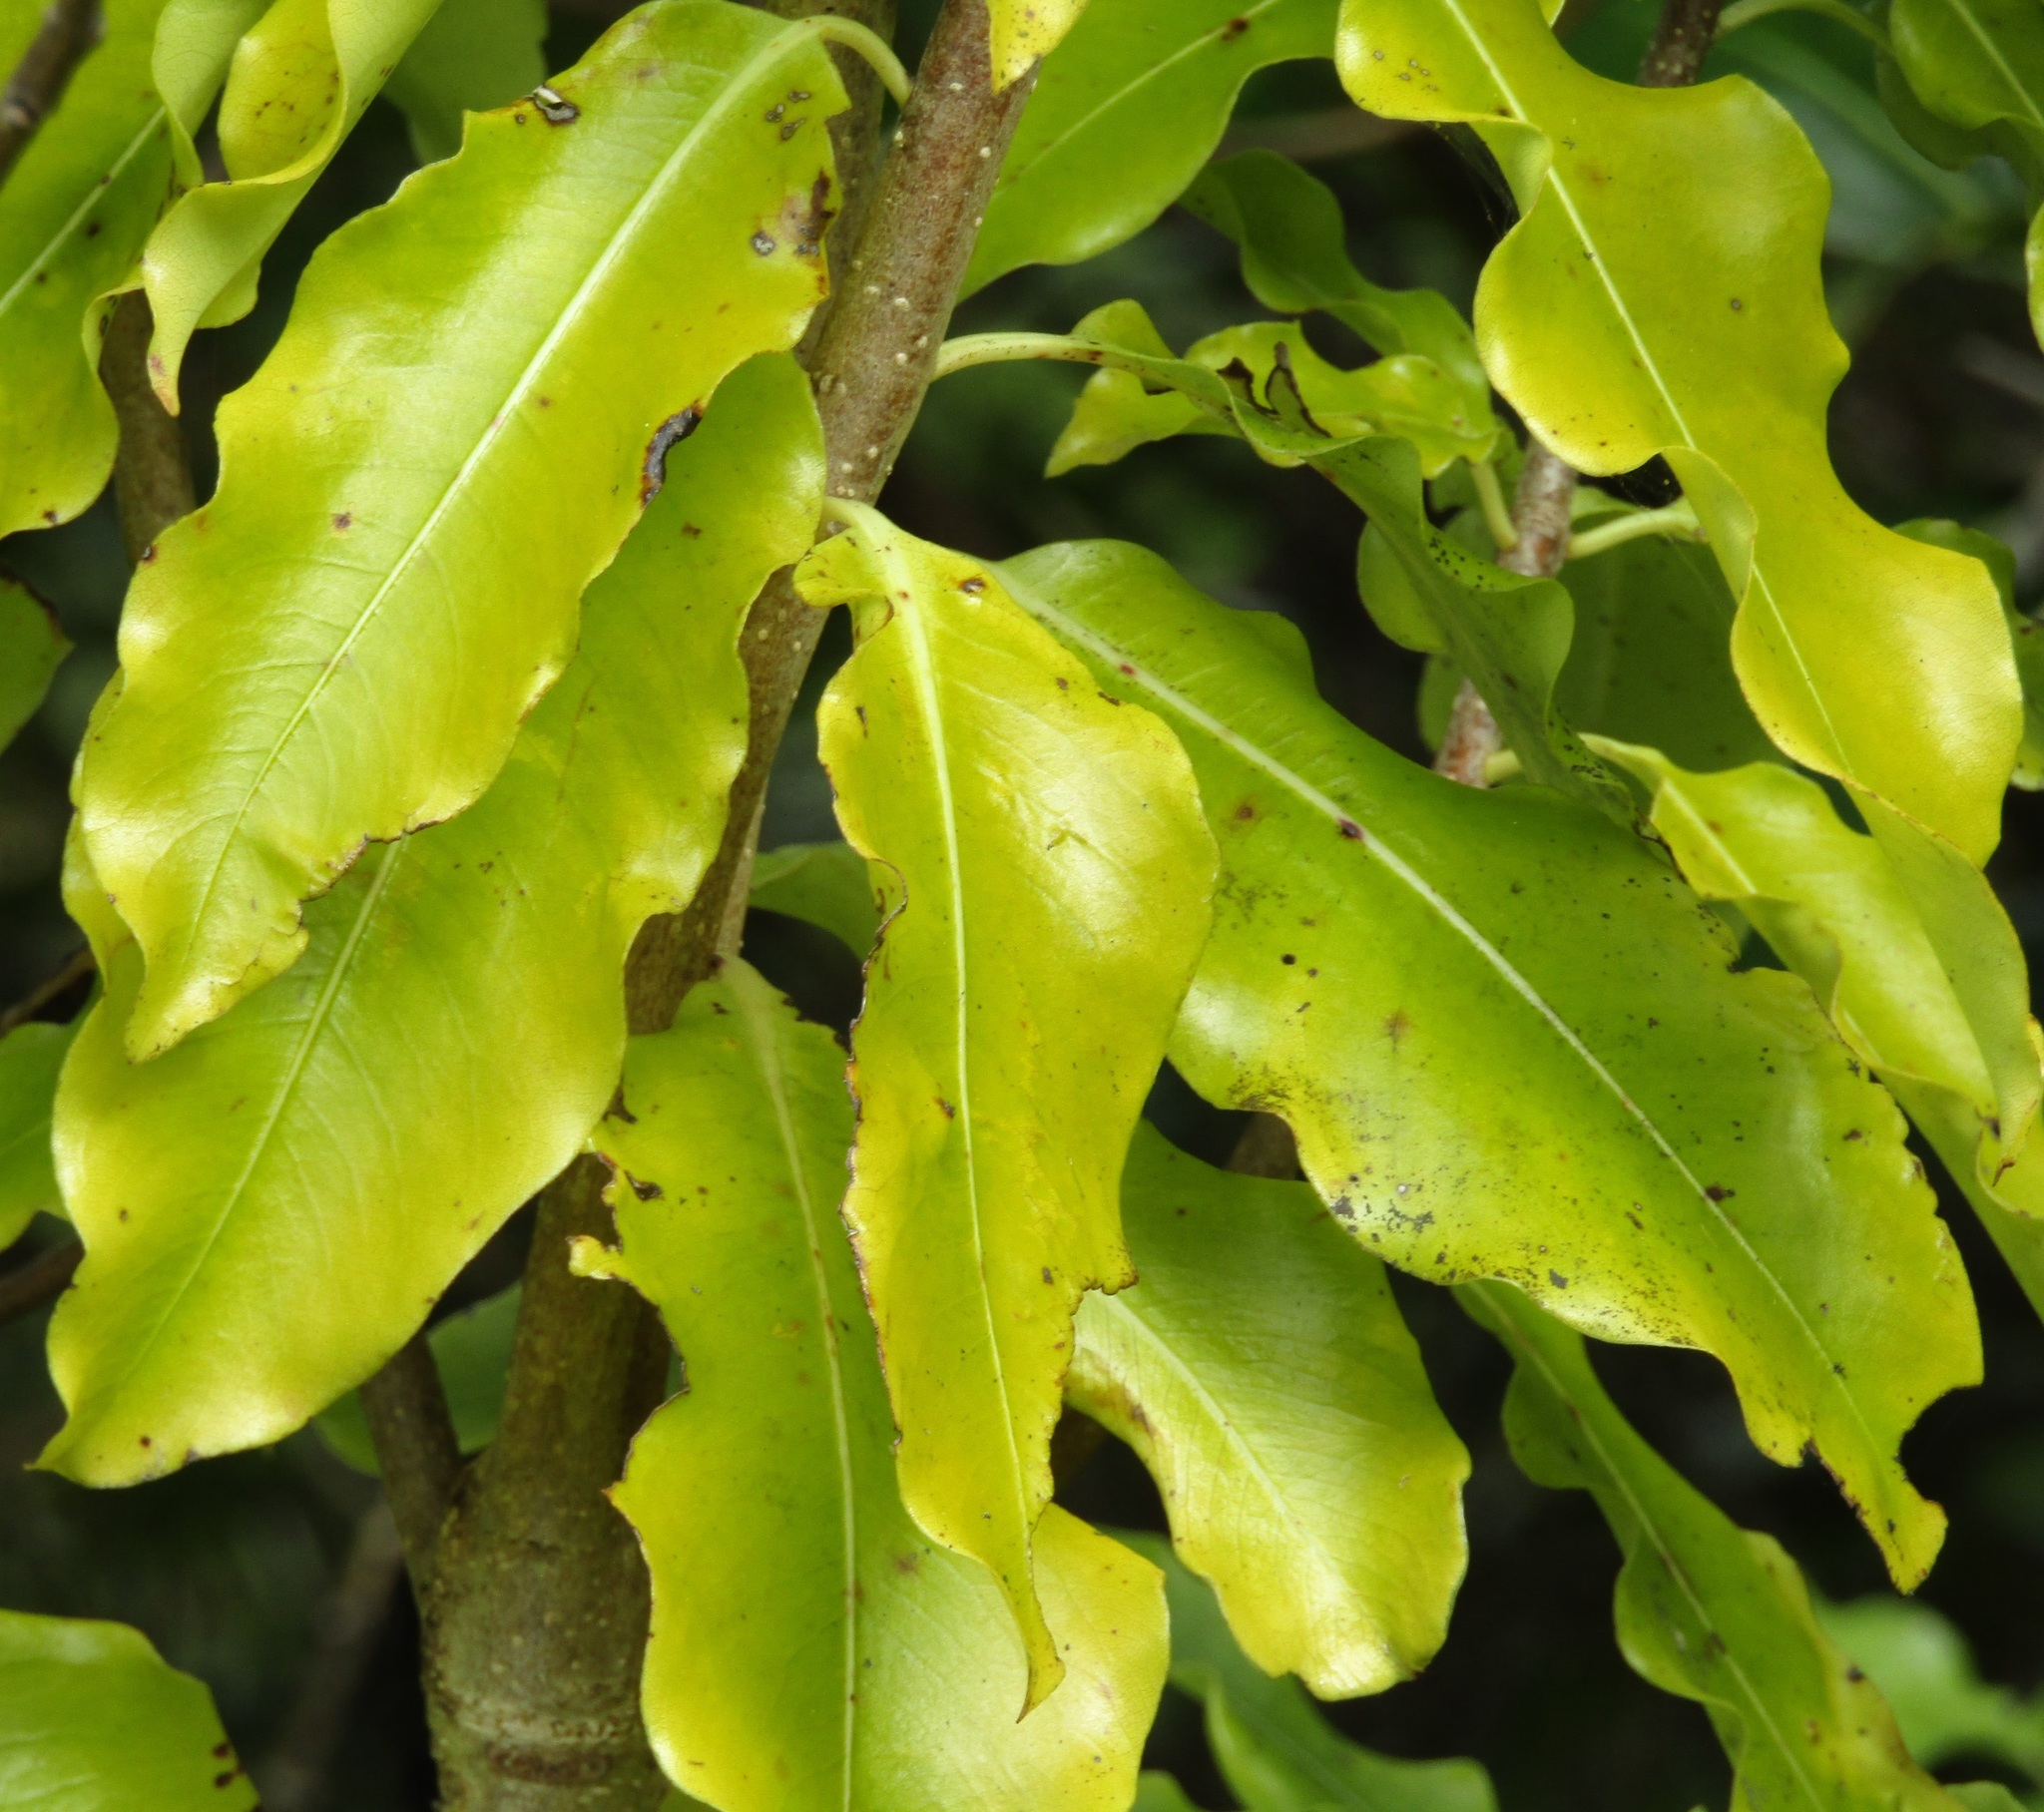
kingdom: Plantae
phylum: Tracheophyta
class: Magnoliopsida
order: Apiales
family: Pittosporaceae
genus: Pittosporum
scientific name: Pittosporum eugenioides
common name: Lemonwood
